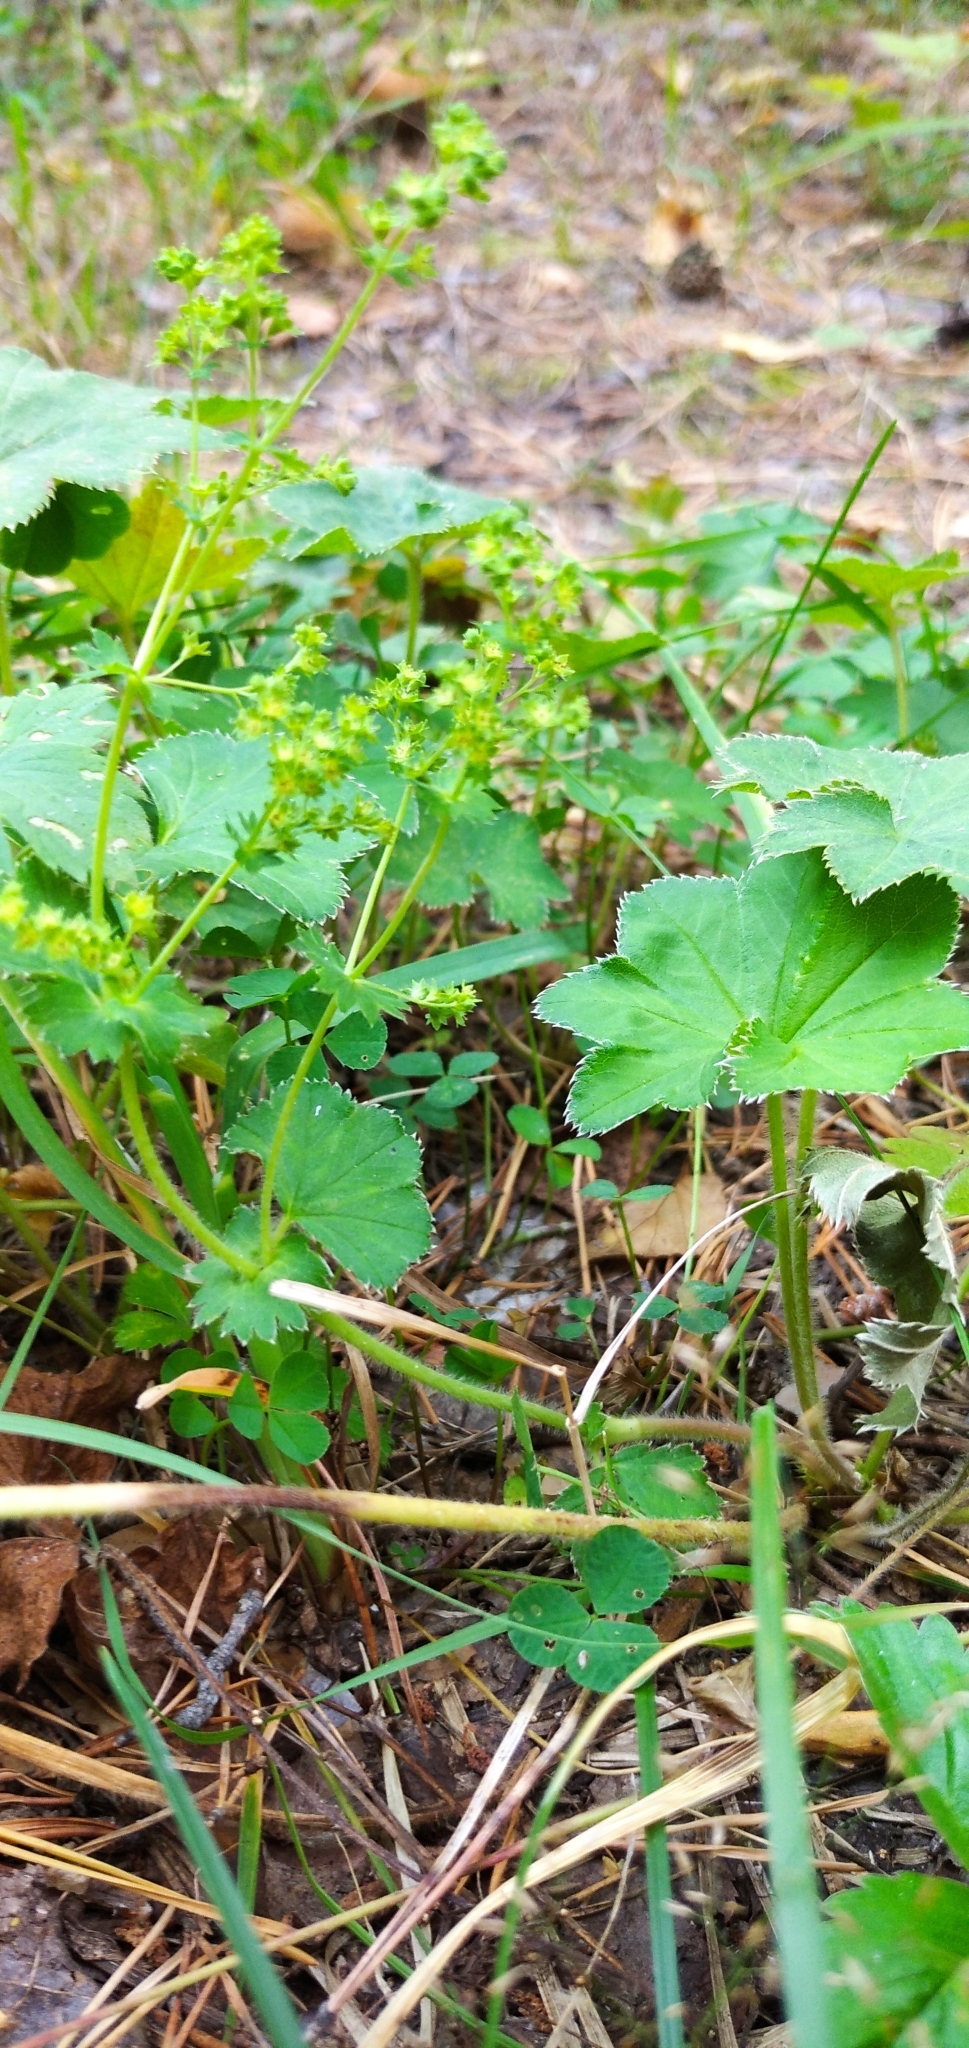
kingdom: Plantae
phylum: Tracheophyta
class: Magnoliopsida
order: Rosales
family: Rosaceae
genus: Alchemilla
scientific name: Alchemilla
